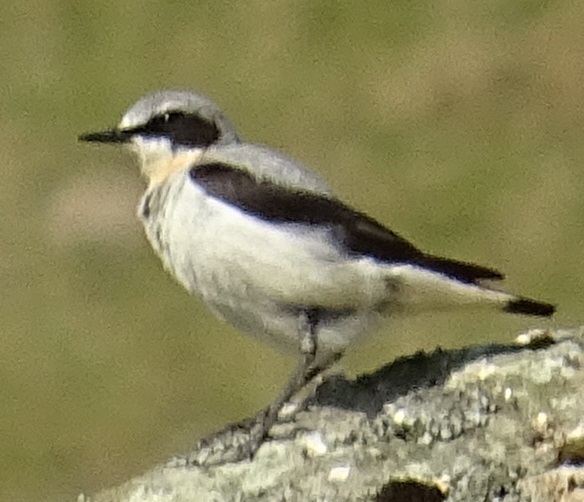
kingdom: Animalia
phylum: Chordata
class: Aves
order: Passeriformes
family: Muscicapidae
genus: Oenanthe
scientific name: Oenanthe oenanthe
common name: Northern wheatear
